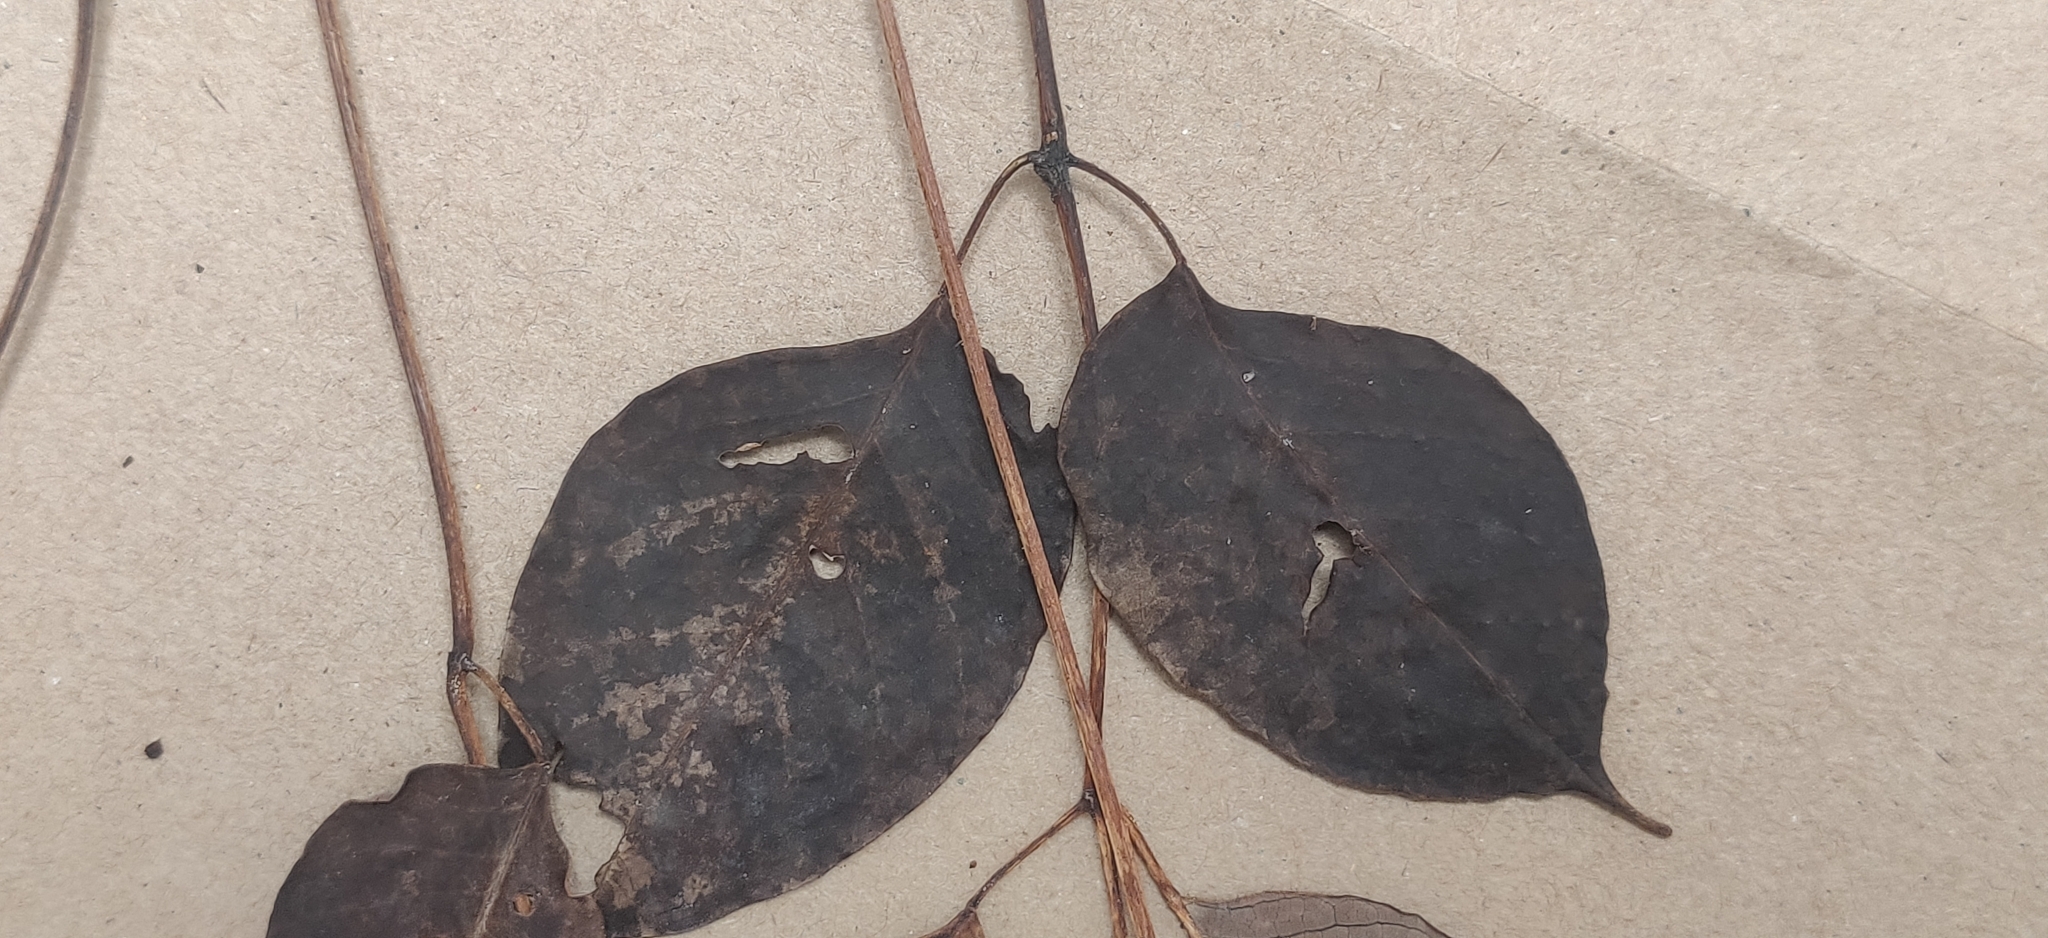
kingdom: Plantae
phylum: Tracheophyta
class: Magnoliopsida
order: Sapindales
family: Meliaceae
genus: Heynea
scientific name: Heynea trijuga
